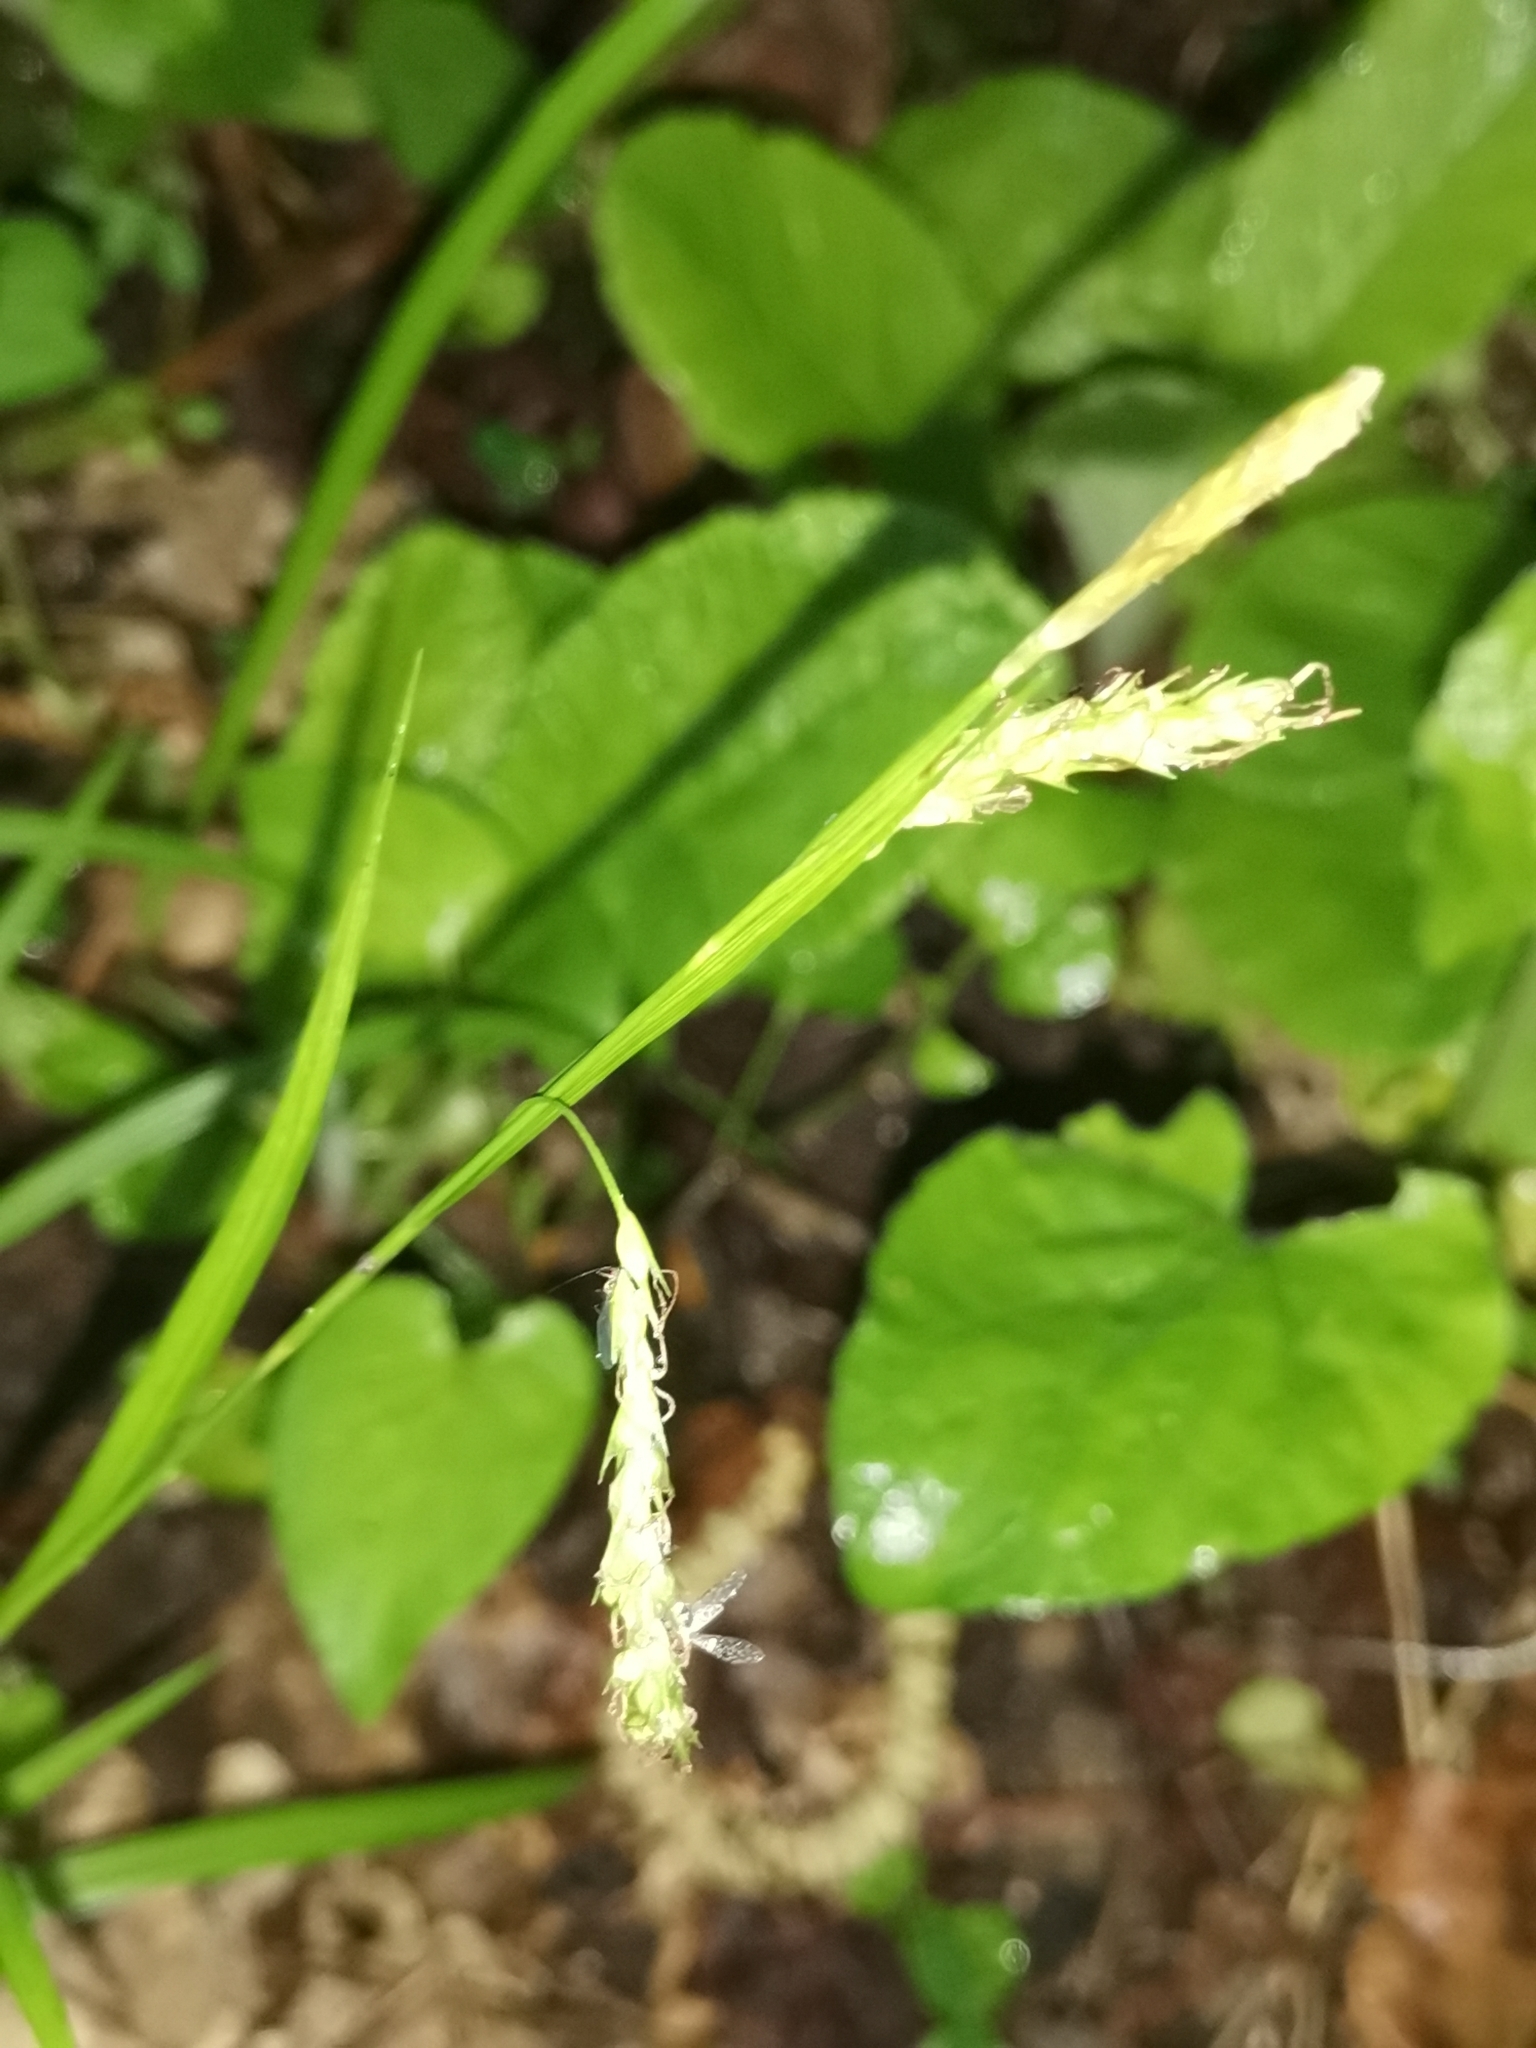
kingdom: Plantae
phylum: Tracheophyta
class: Liliopsida
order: Poales
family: Cyperaceae
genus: Carex
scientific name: Carex sylvatica
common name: Wood-sedge
